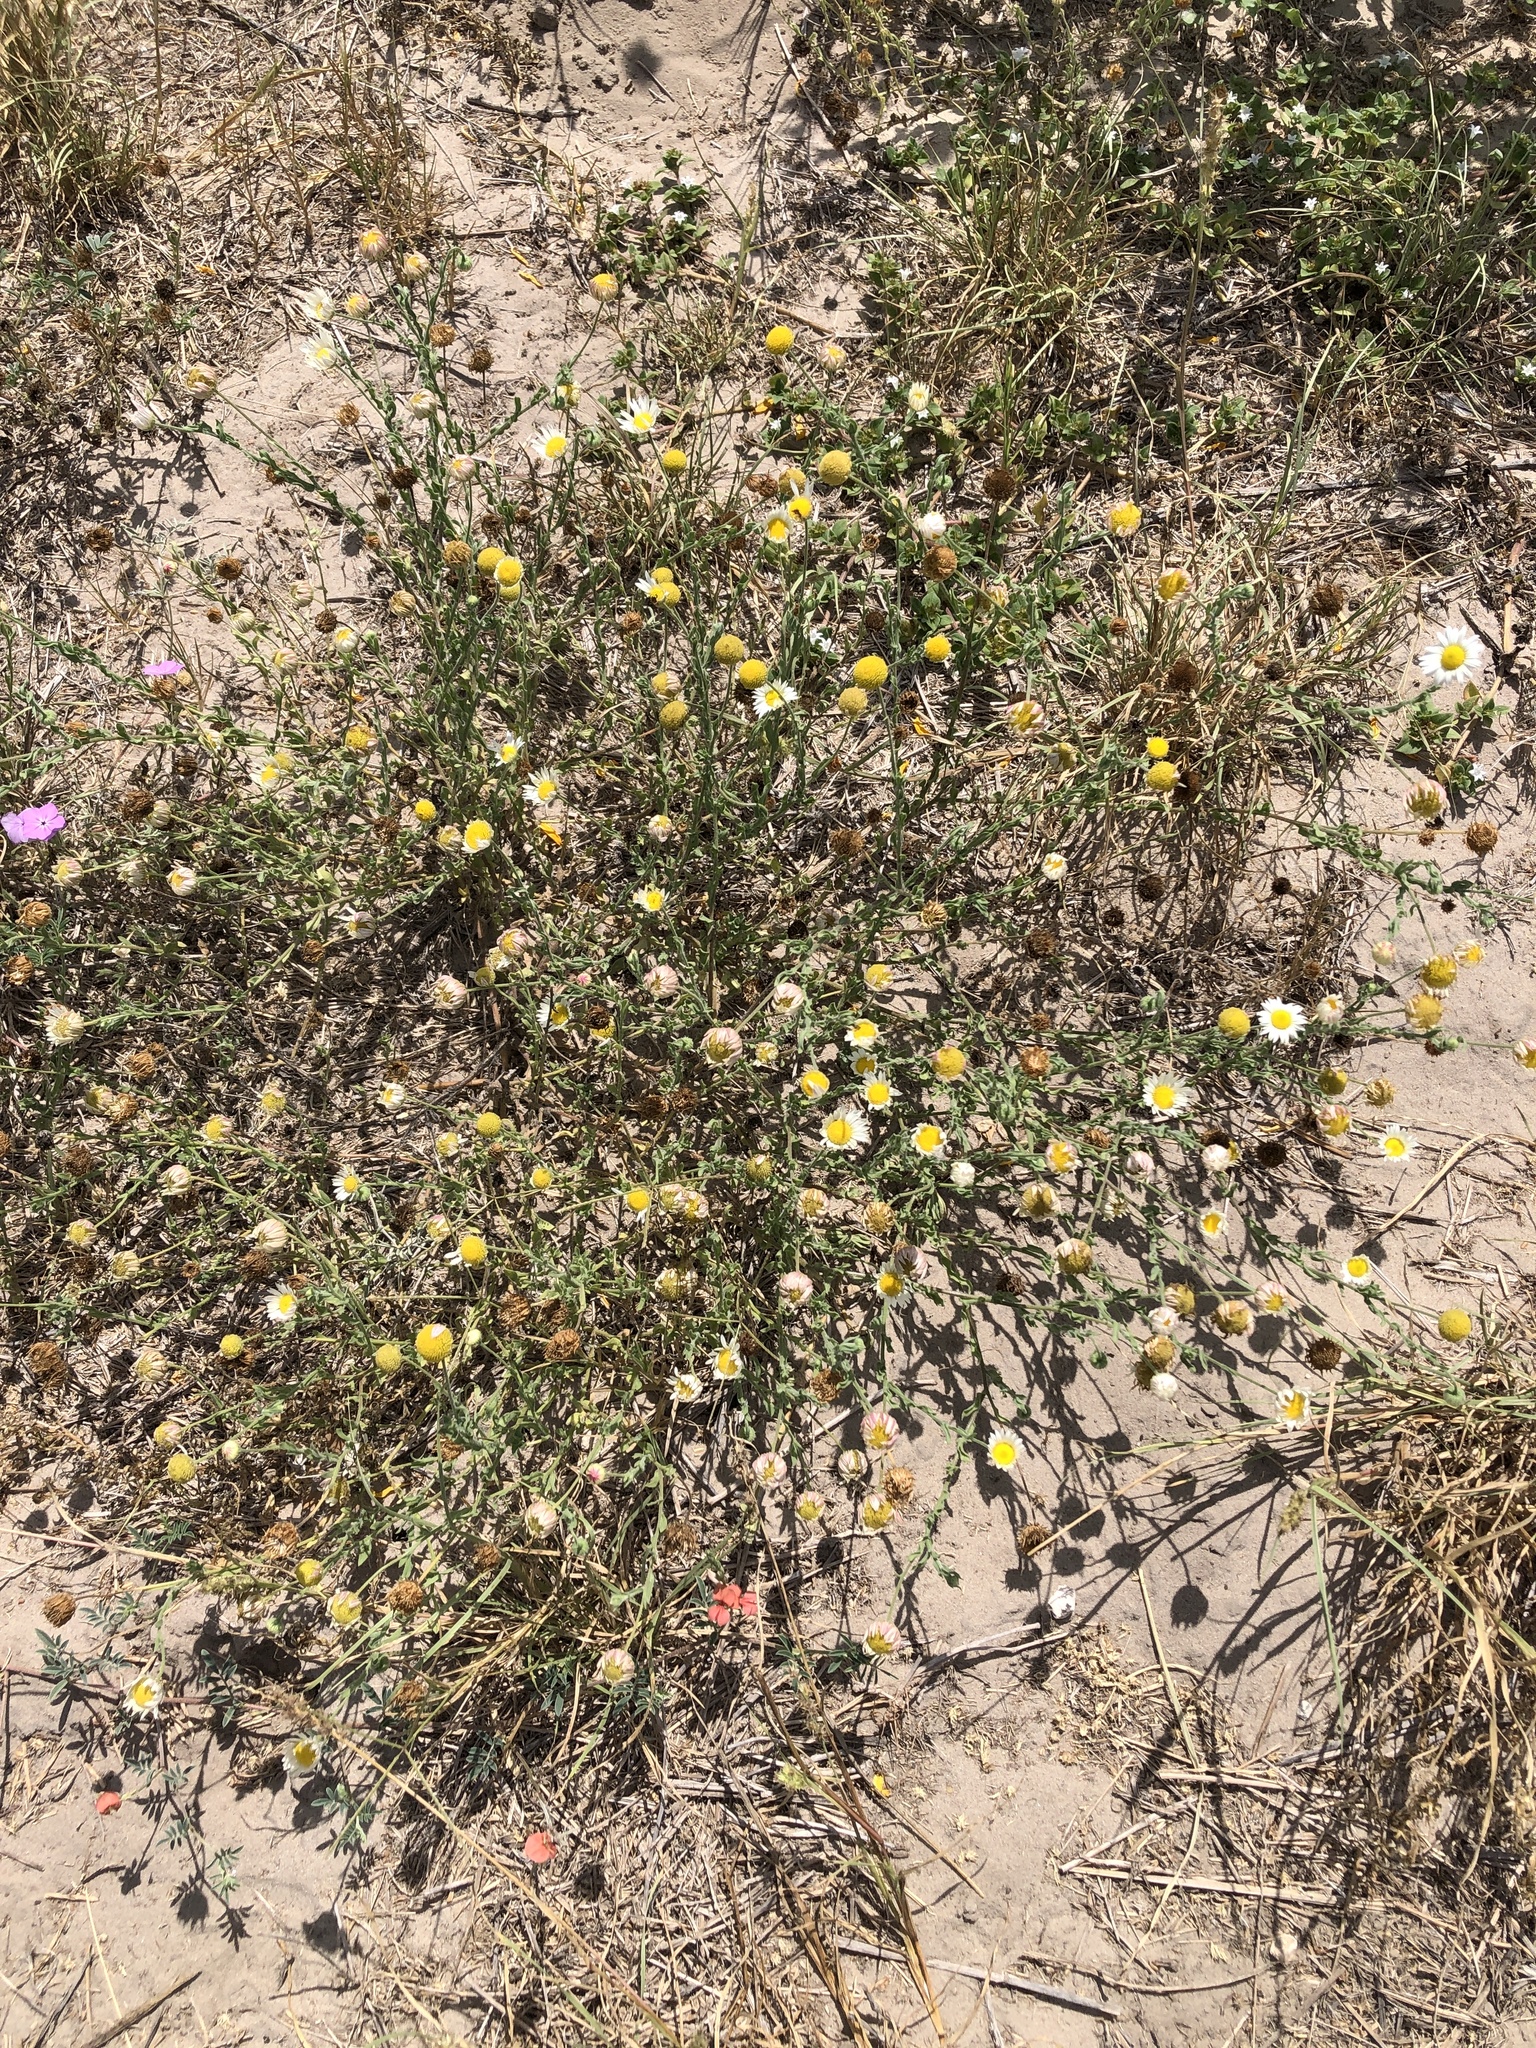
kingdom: Plantae
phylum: Tracheophyta
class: Magnoliopsida
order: Asterales
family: Asteraceae
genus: Aphanostephus
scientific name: Aphanostephus ramosissimus
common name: Plains lazy daisy
